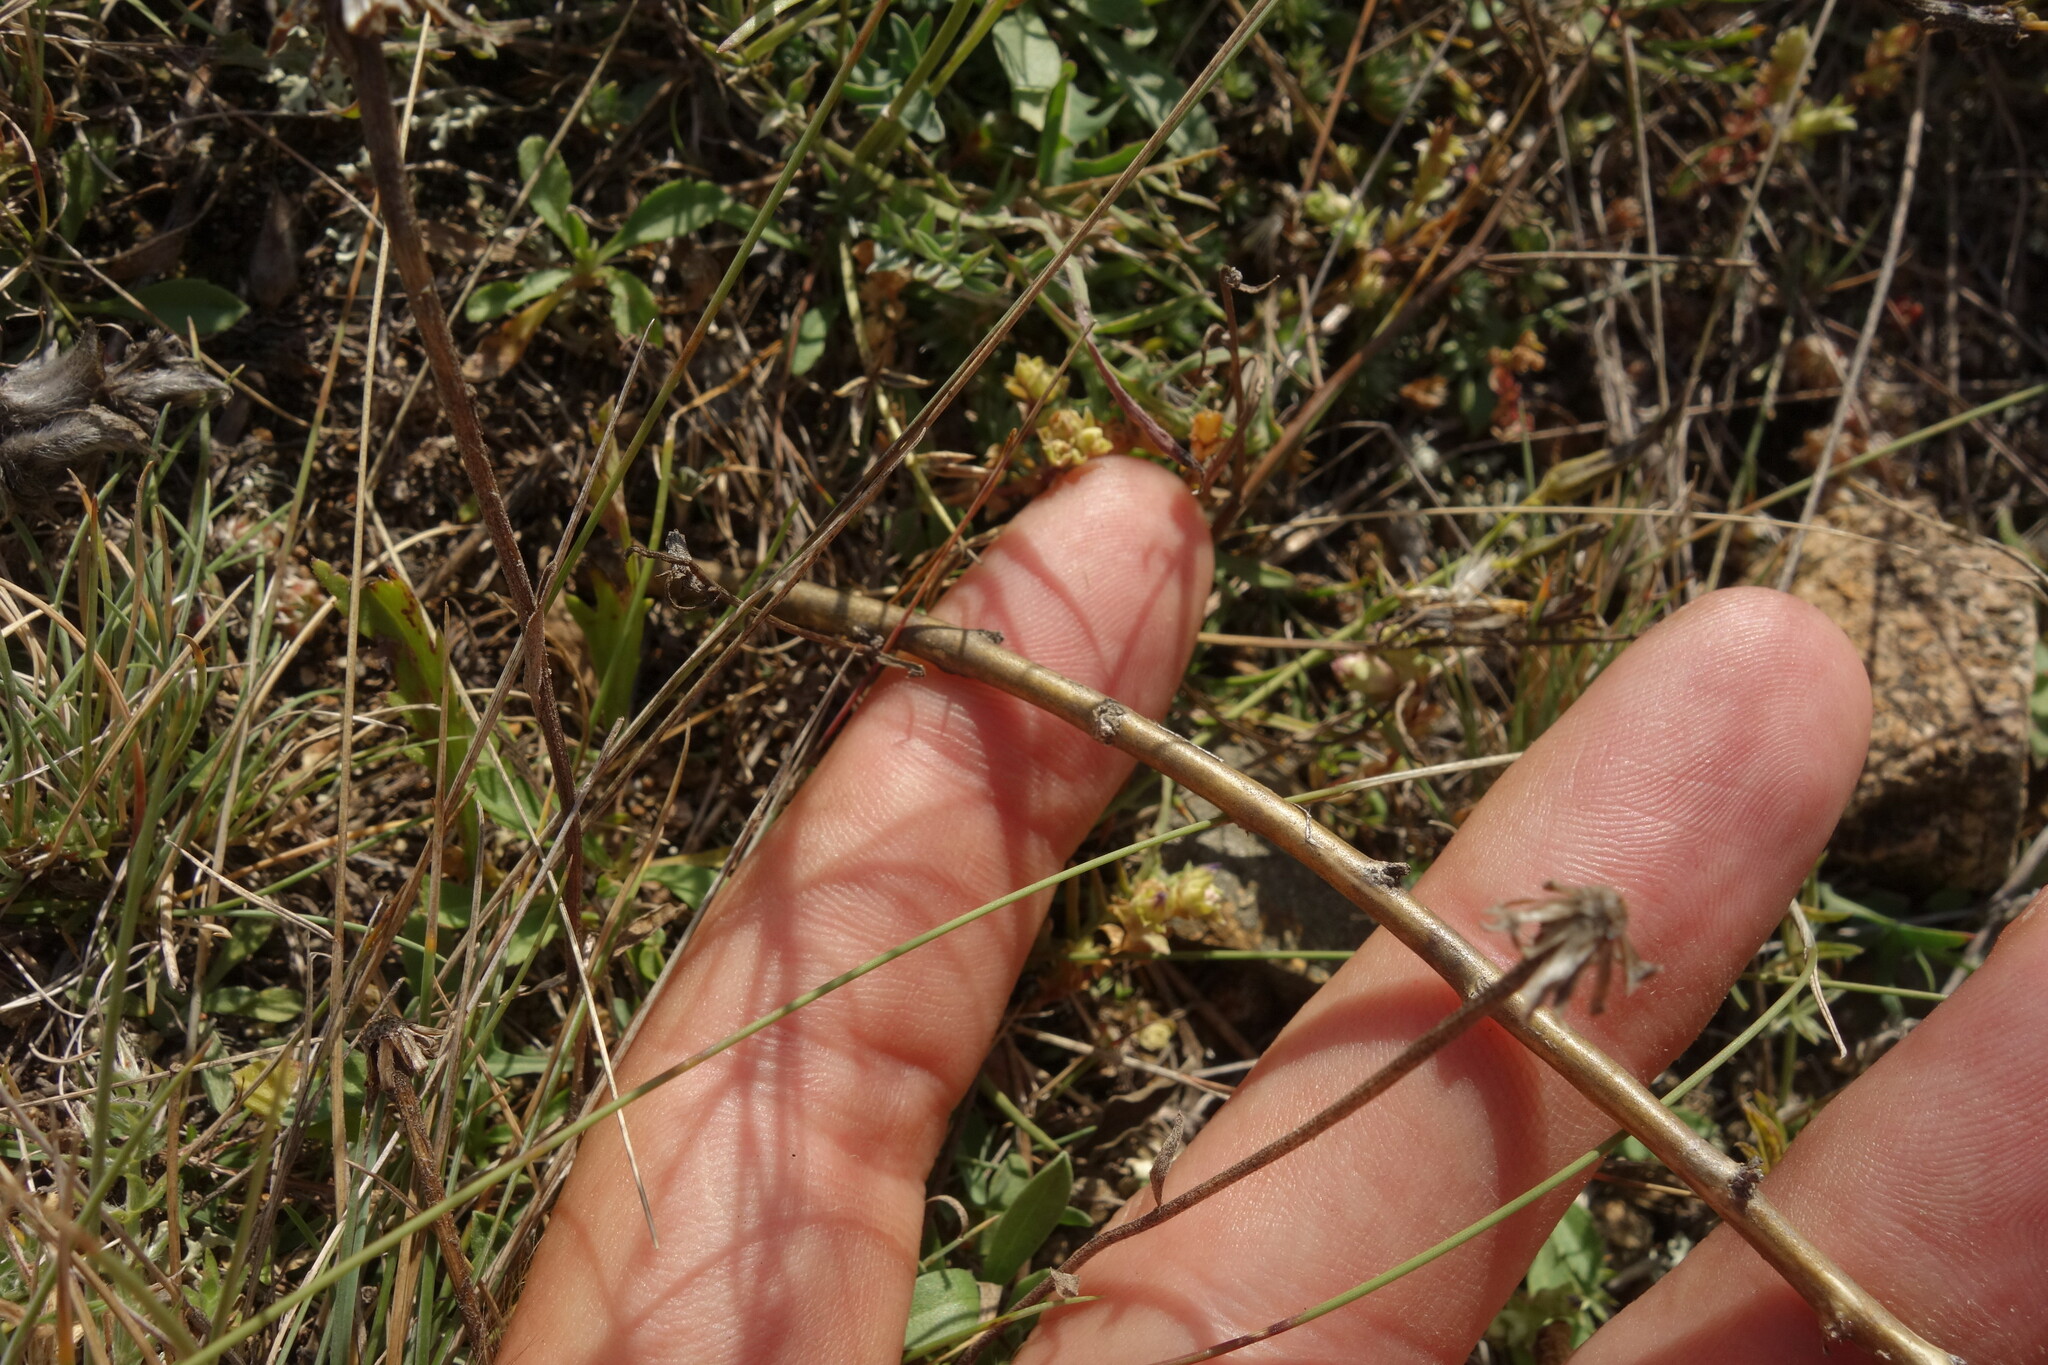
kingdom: Plantae
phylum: Tracheophyta
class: Magnoliopsida
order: Fabales
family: Fabaceae
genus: Caragana
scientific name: Caragana pygmaea
